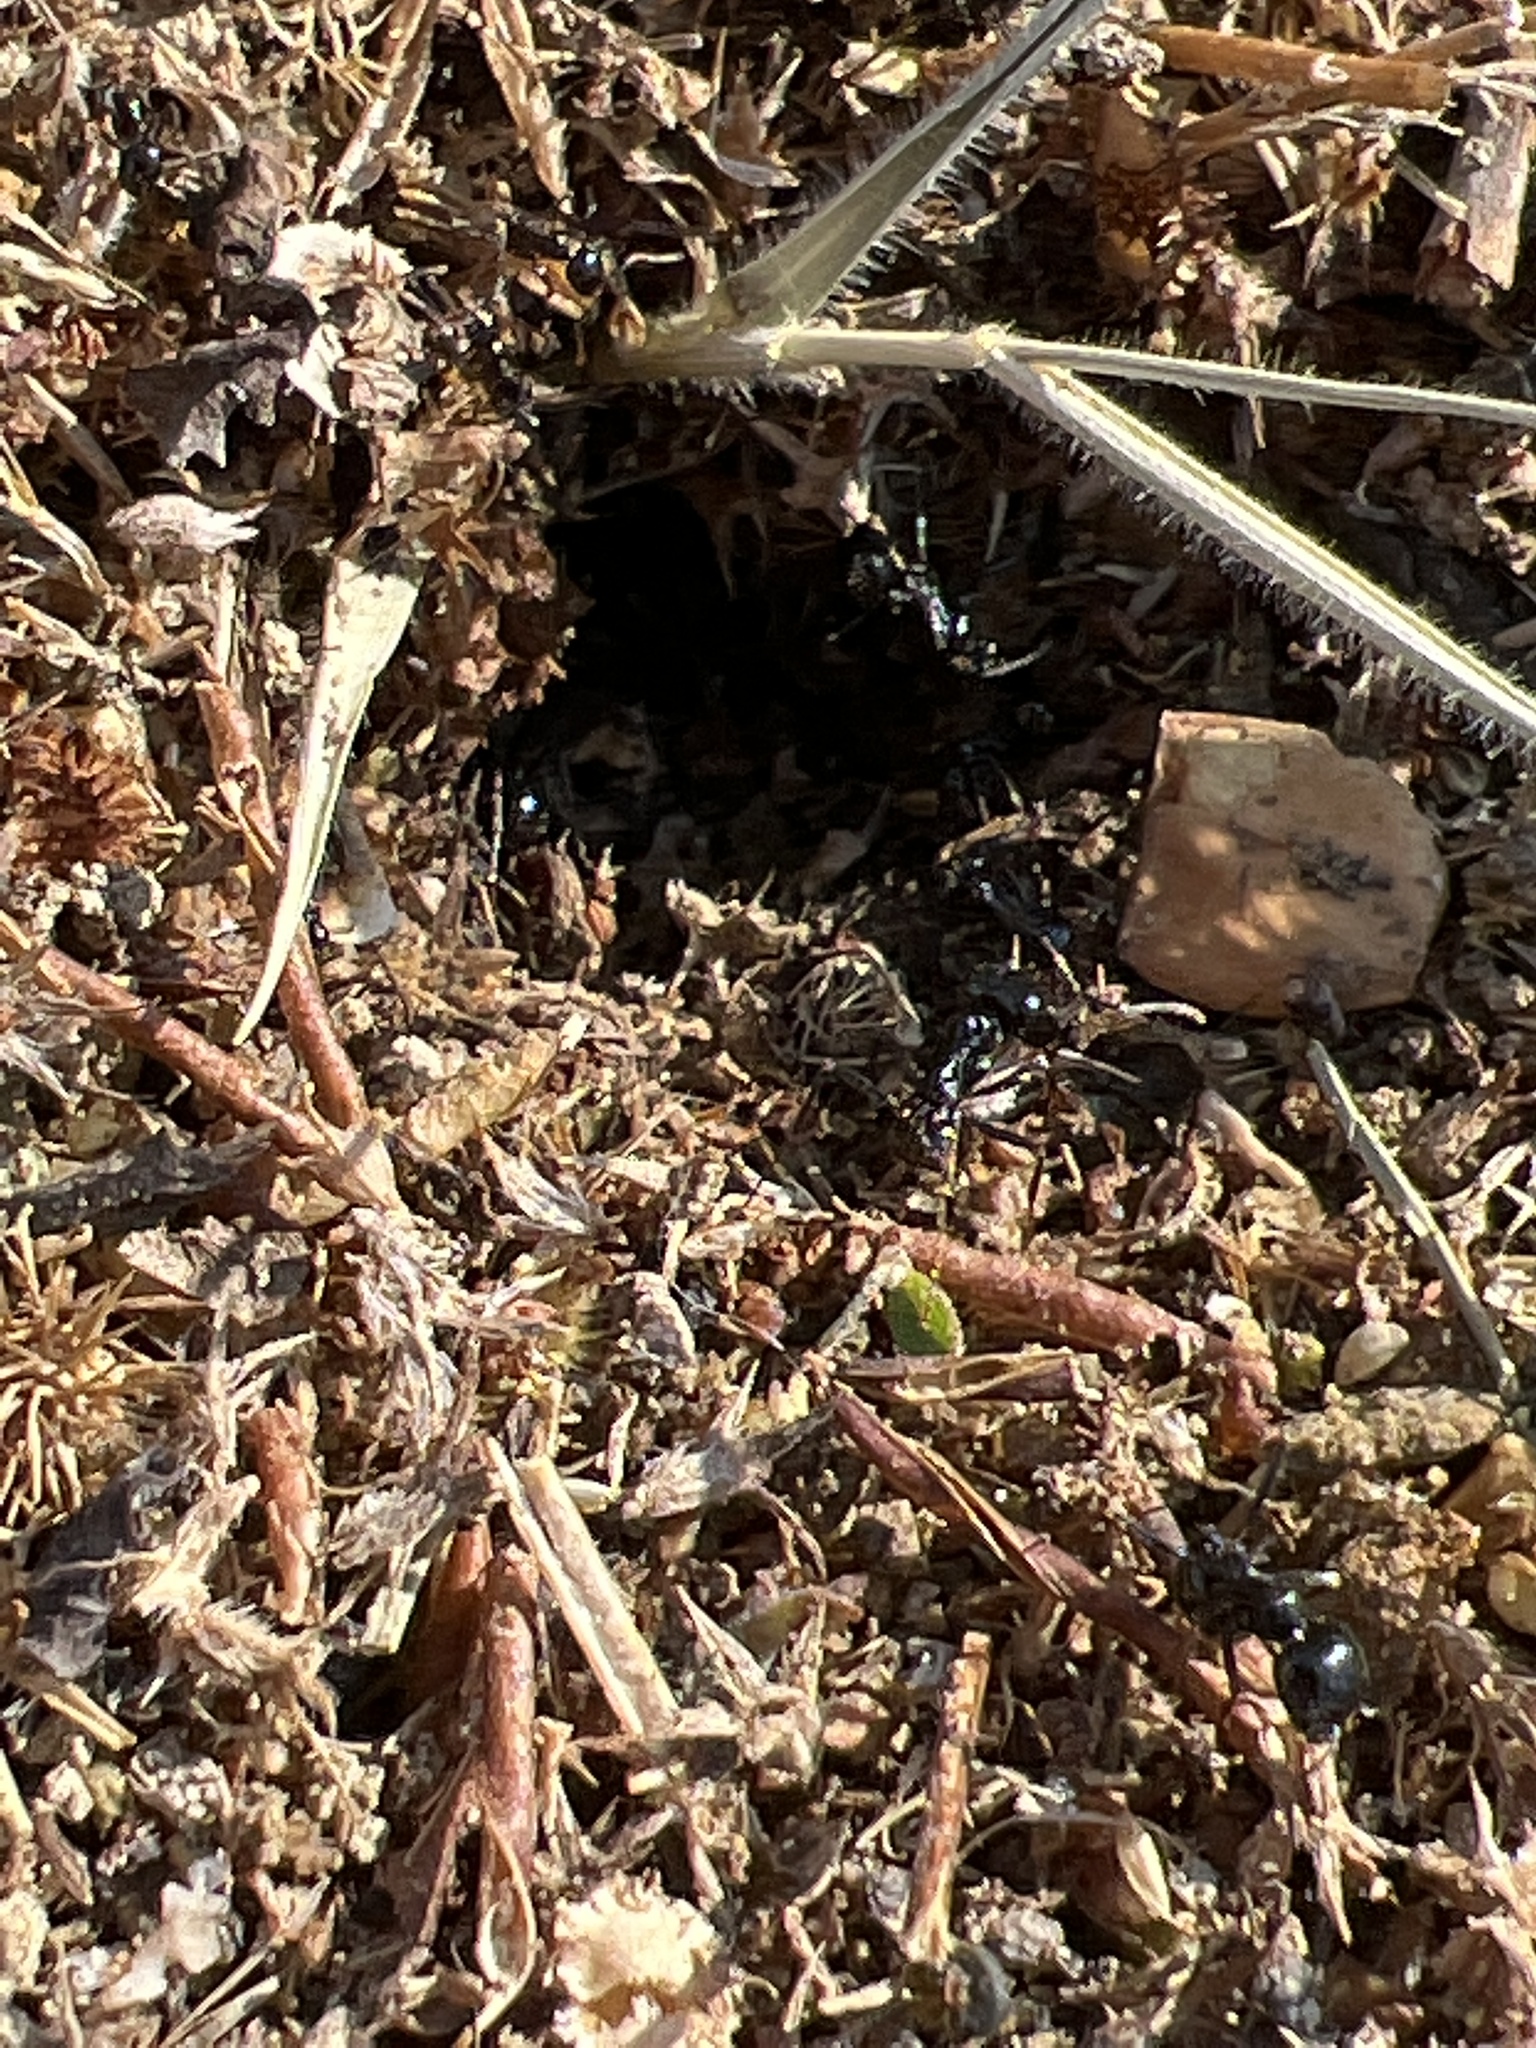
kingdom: Animalia
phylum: Arthropoda
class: Insecta
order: Hymenoptera
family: Formicidae
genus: Messor
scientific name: Messor capitatus
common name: European seed harvesting ant
